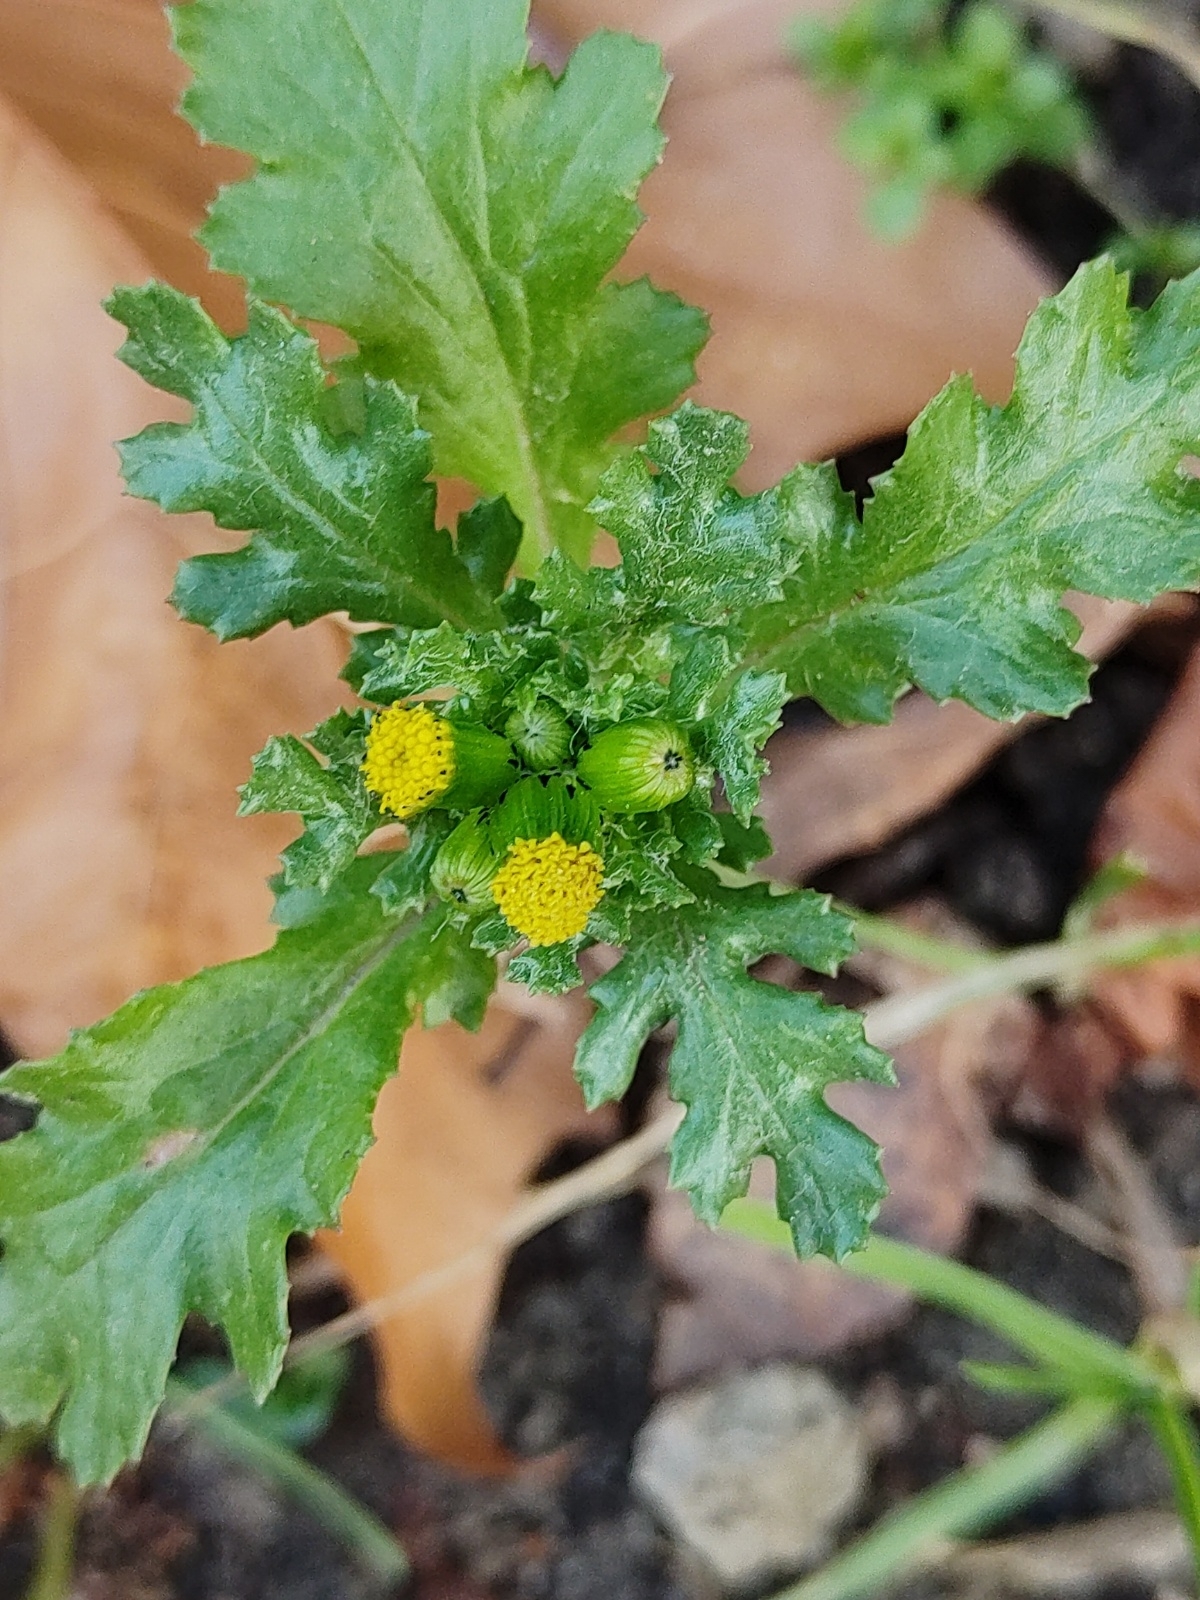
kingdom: Plantae
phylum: Tracheophyta
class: Magnoliopsida
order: Asterales
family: Asteraceae
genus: Senecio
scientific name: Senecio vulgaris
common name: Old-man-in-the-spring
